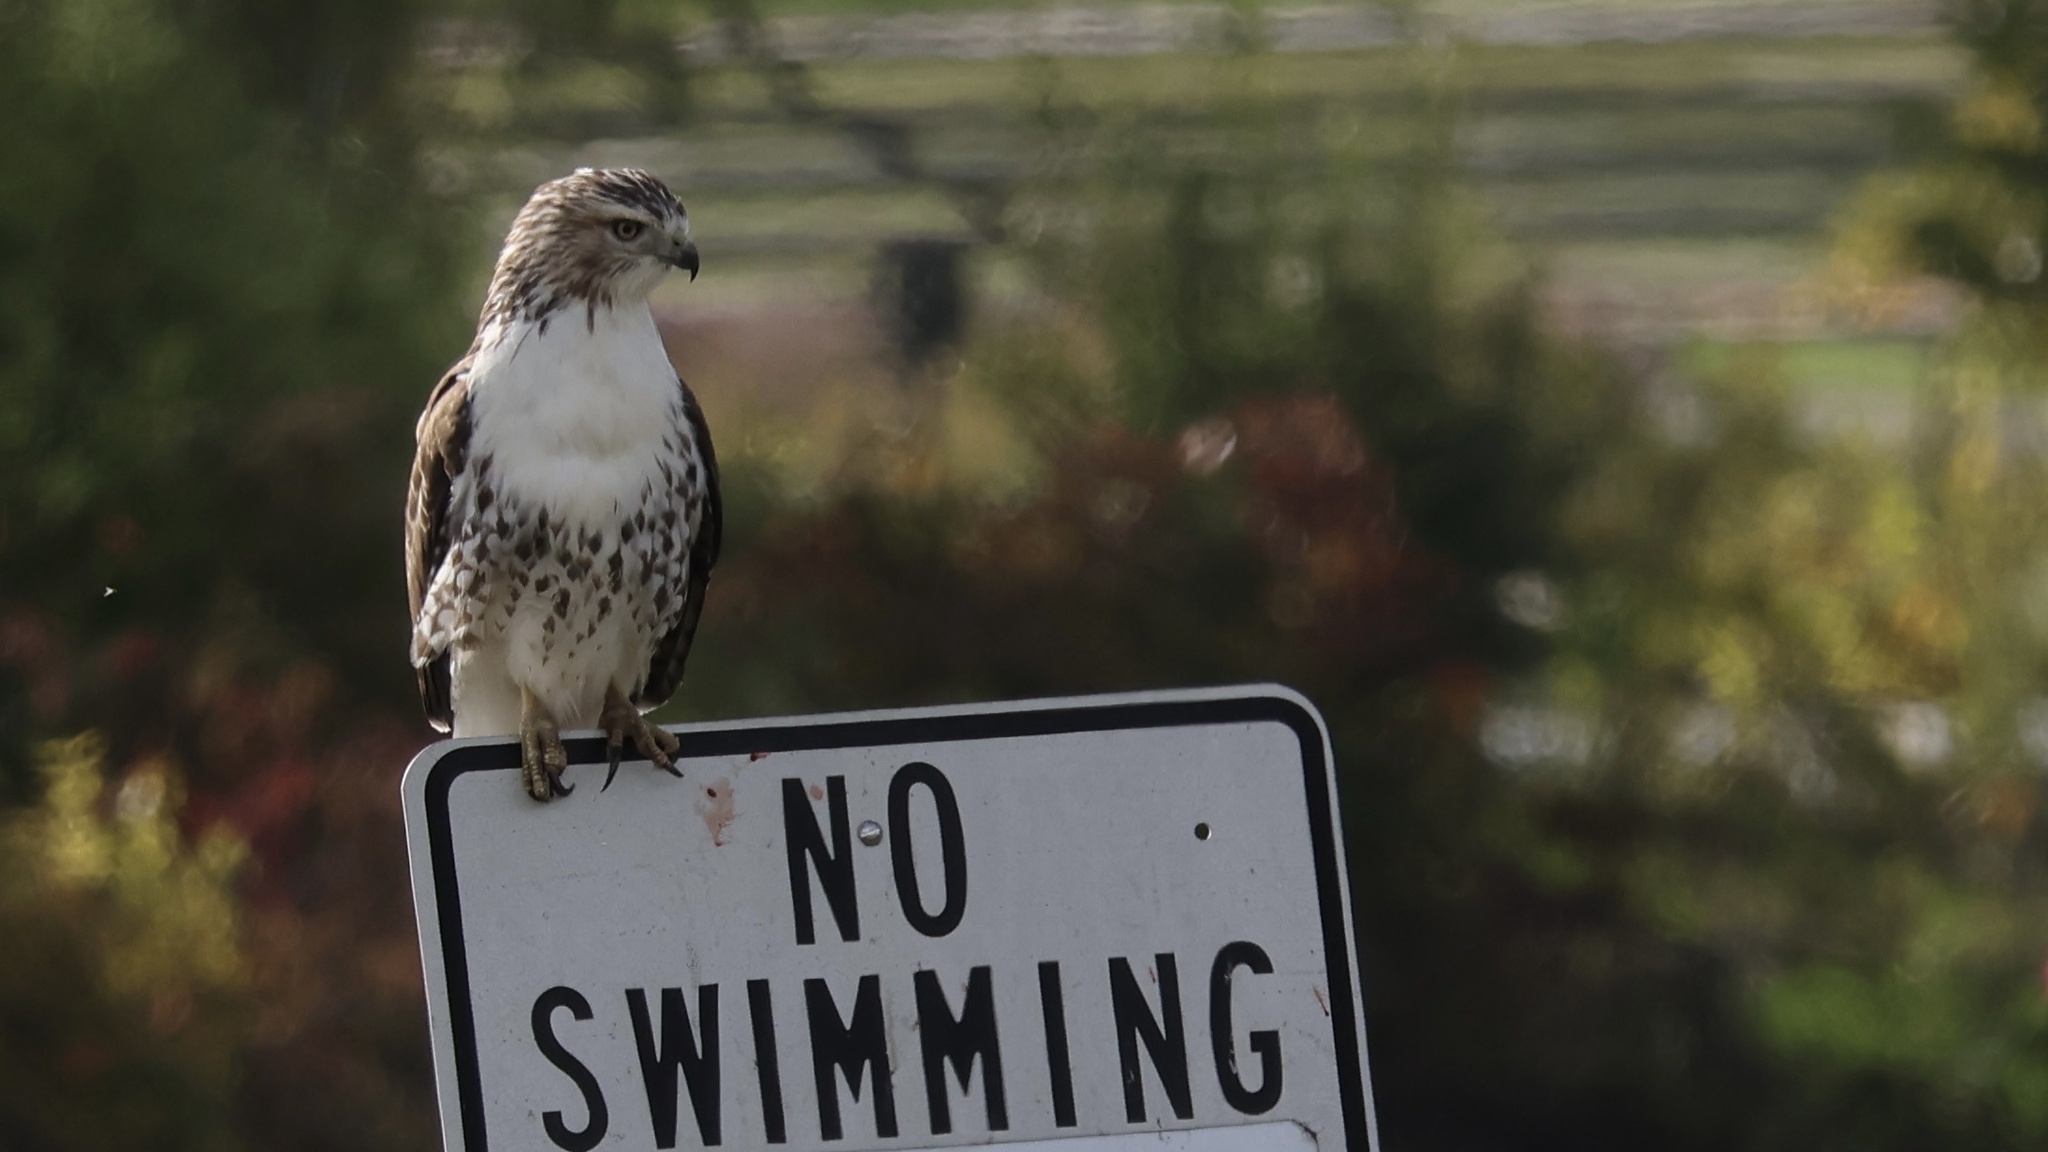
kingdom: Animalia
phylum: Chordata
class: Aves
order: Accipitriformes
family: Accipitridae
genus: Buteo
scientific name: Buteo jamaicensis
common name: Red-tailed hawk
